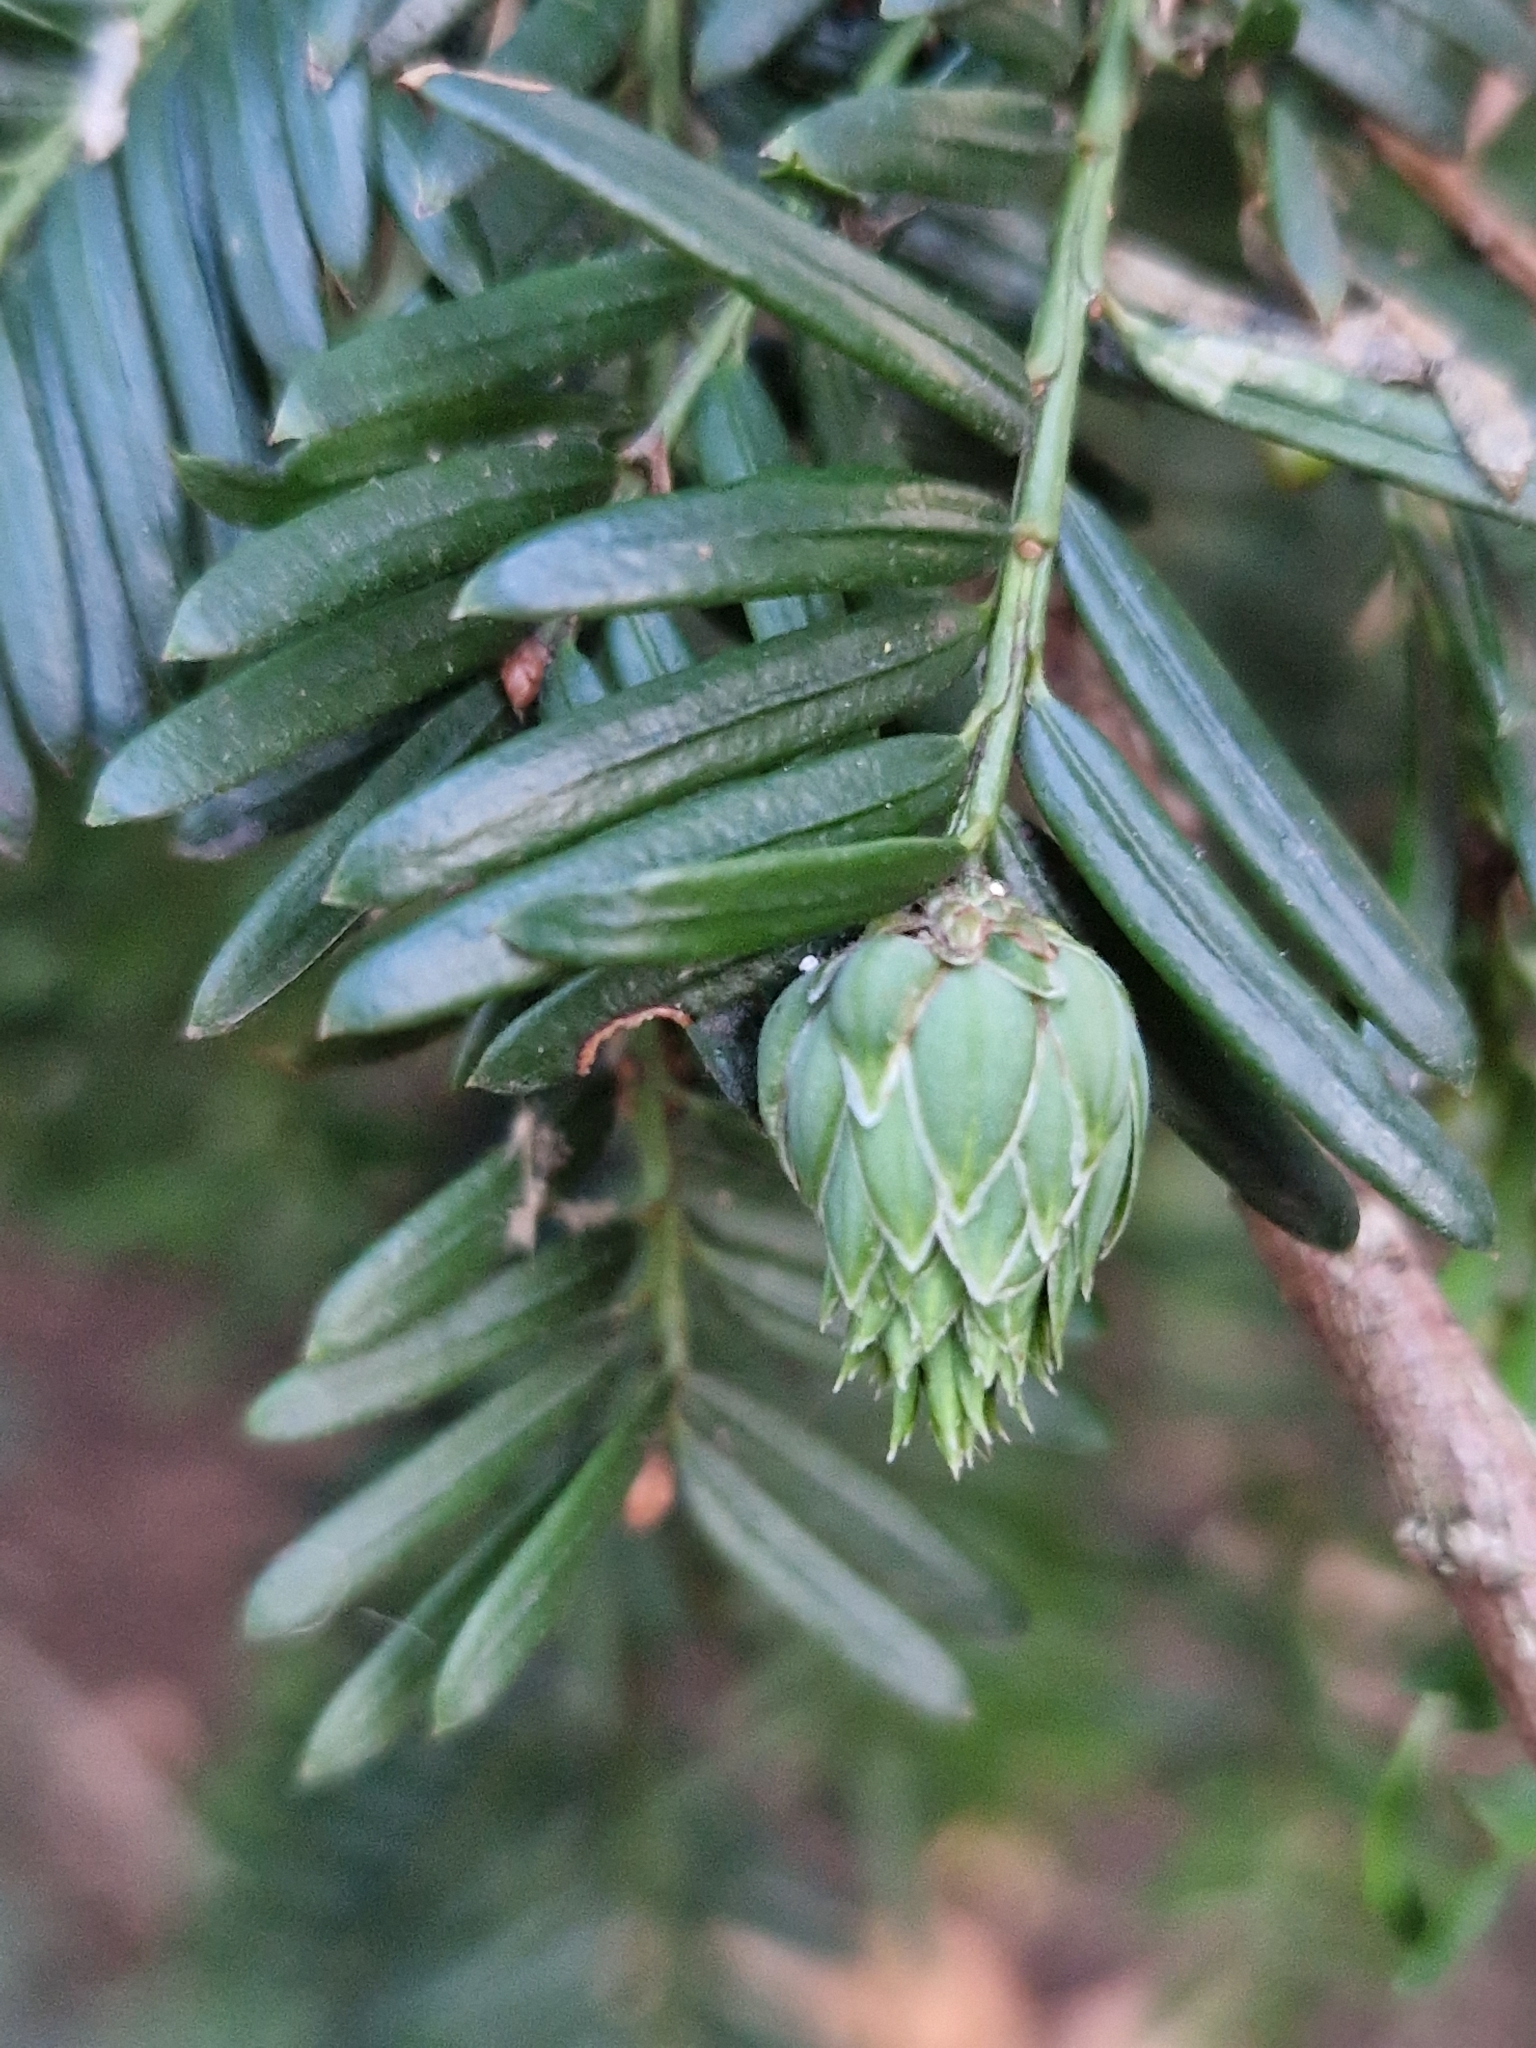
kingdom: Animalia
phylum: Arthropoda
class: Insecta
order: Diptera
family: Cecidomyiidae
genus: Taxomyia
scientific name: Taxomyia taxi
